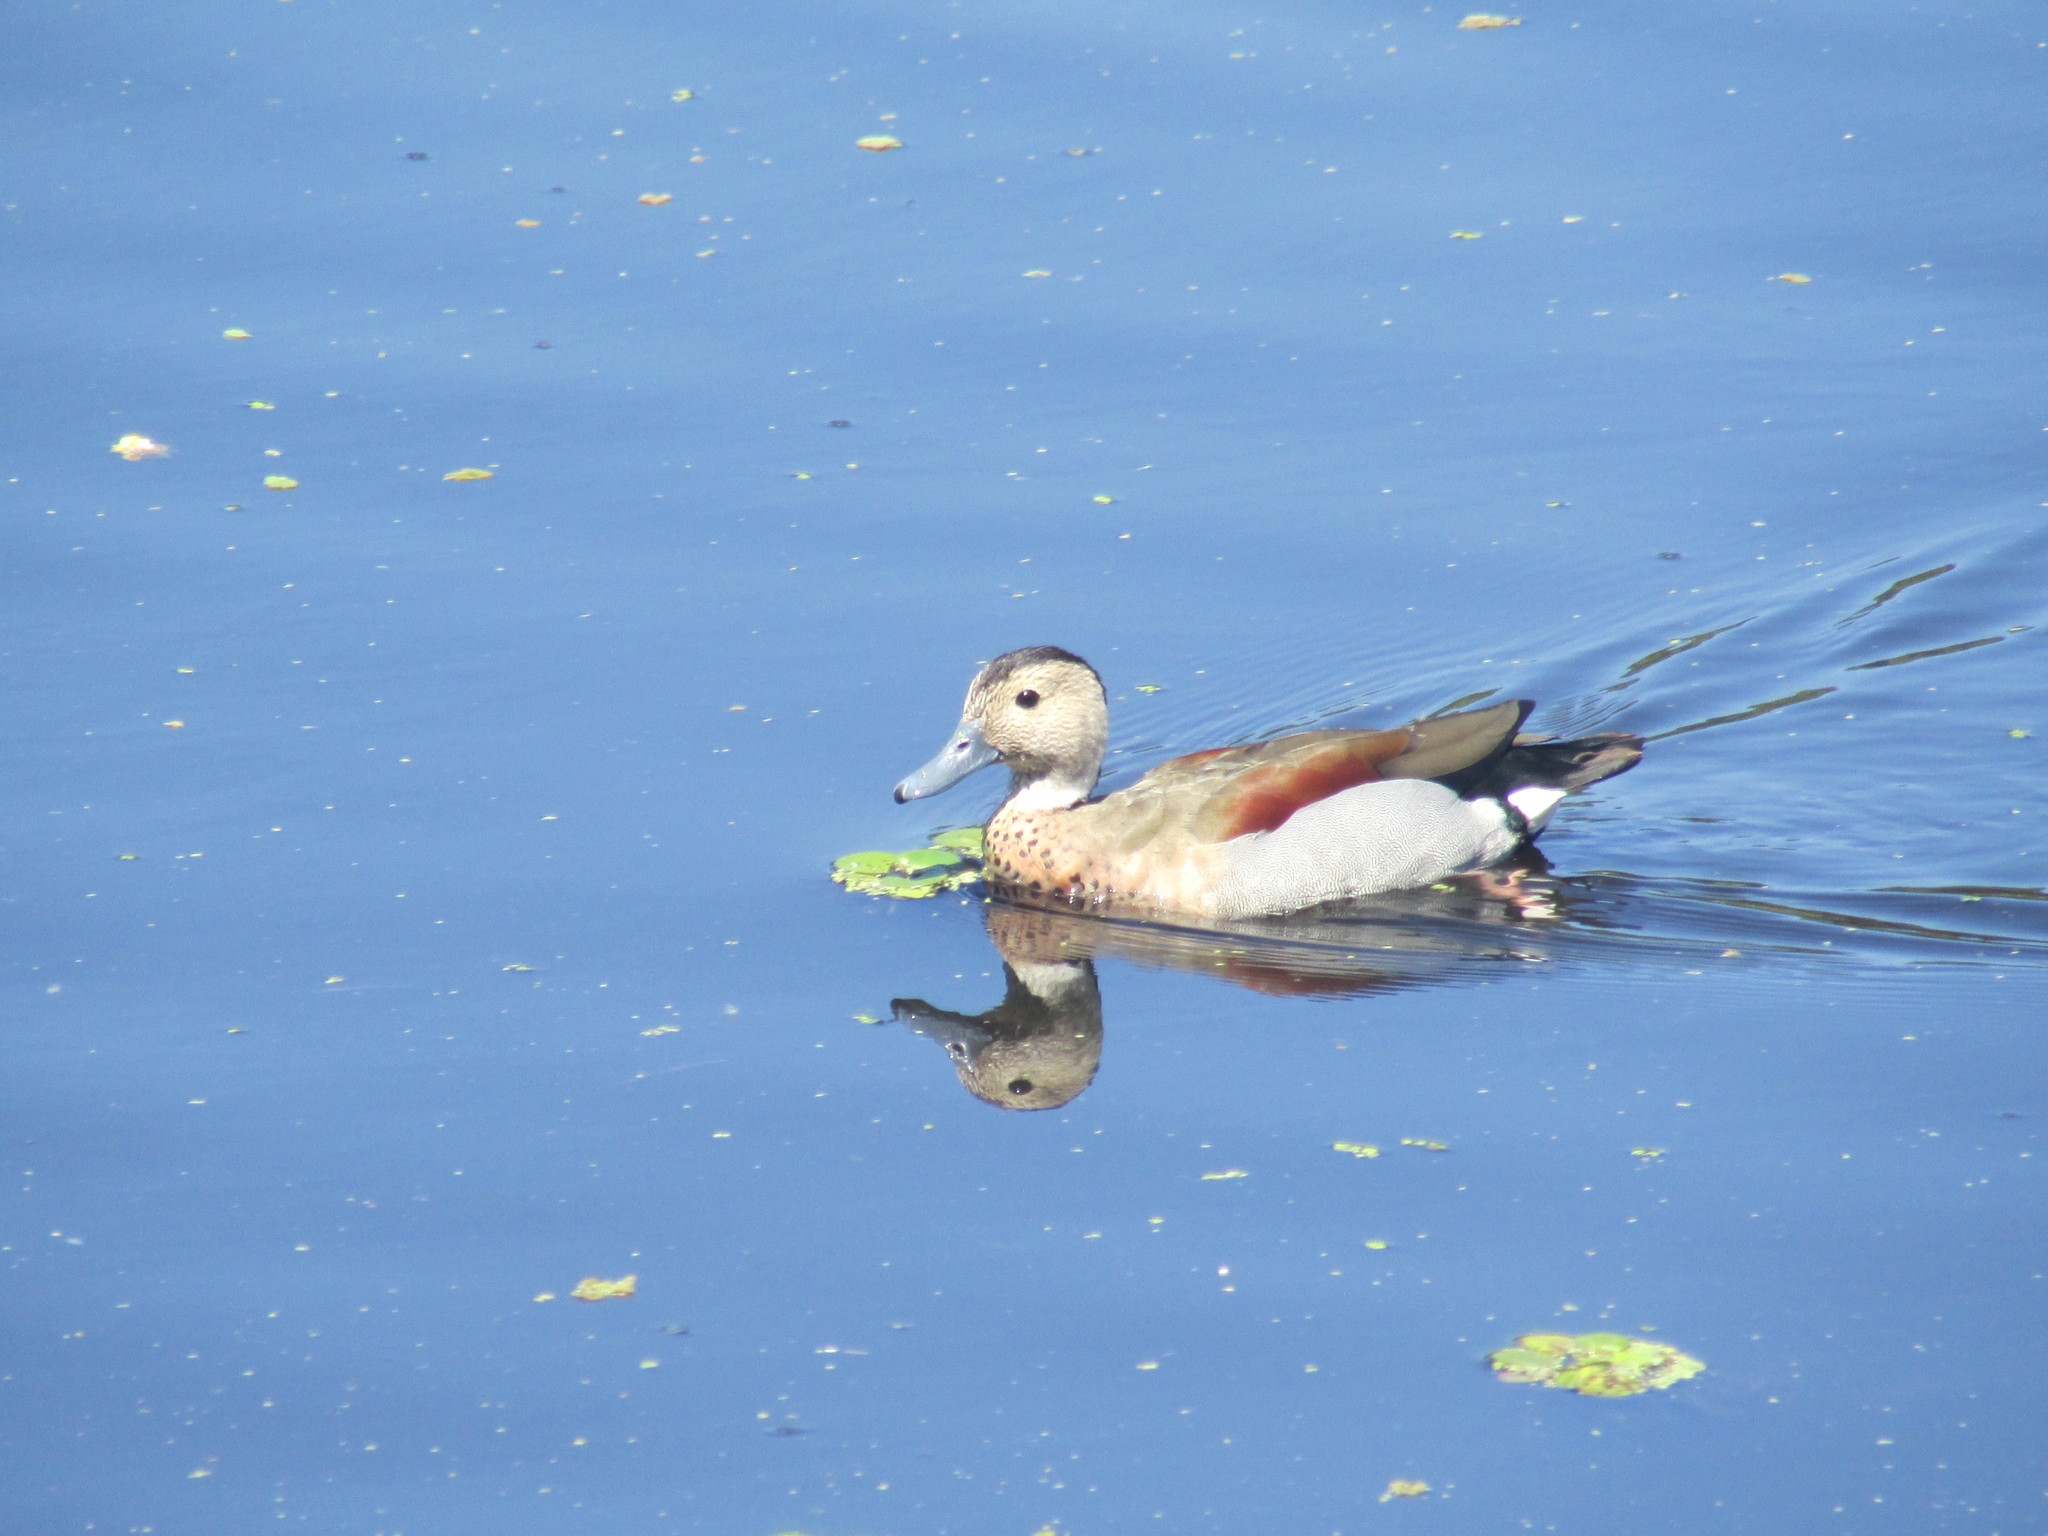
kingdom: Animalia
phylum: Chordata
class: Aves
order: Anseriformes
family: Anatidae
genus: Callonetta
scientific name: Callonetta leucophrys
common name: Ringed teal
